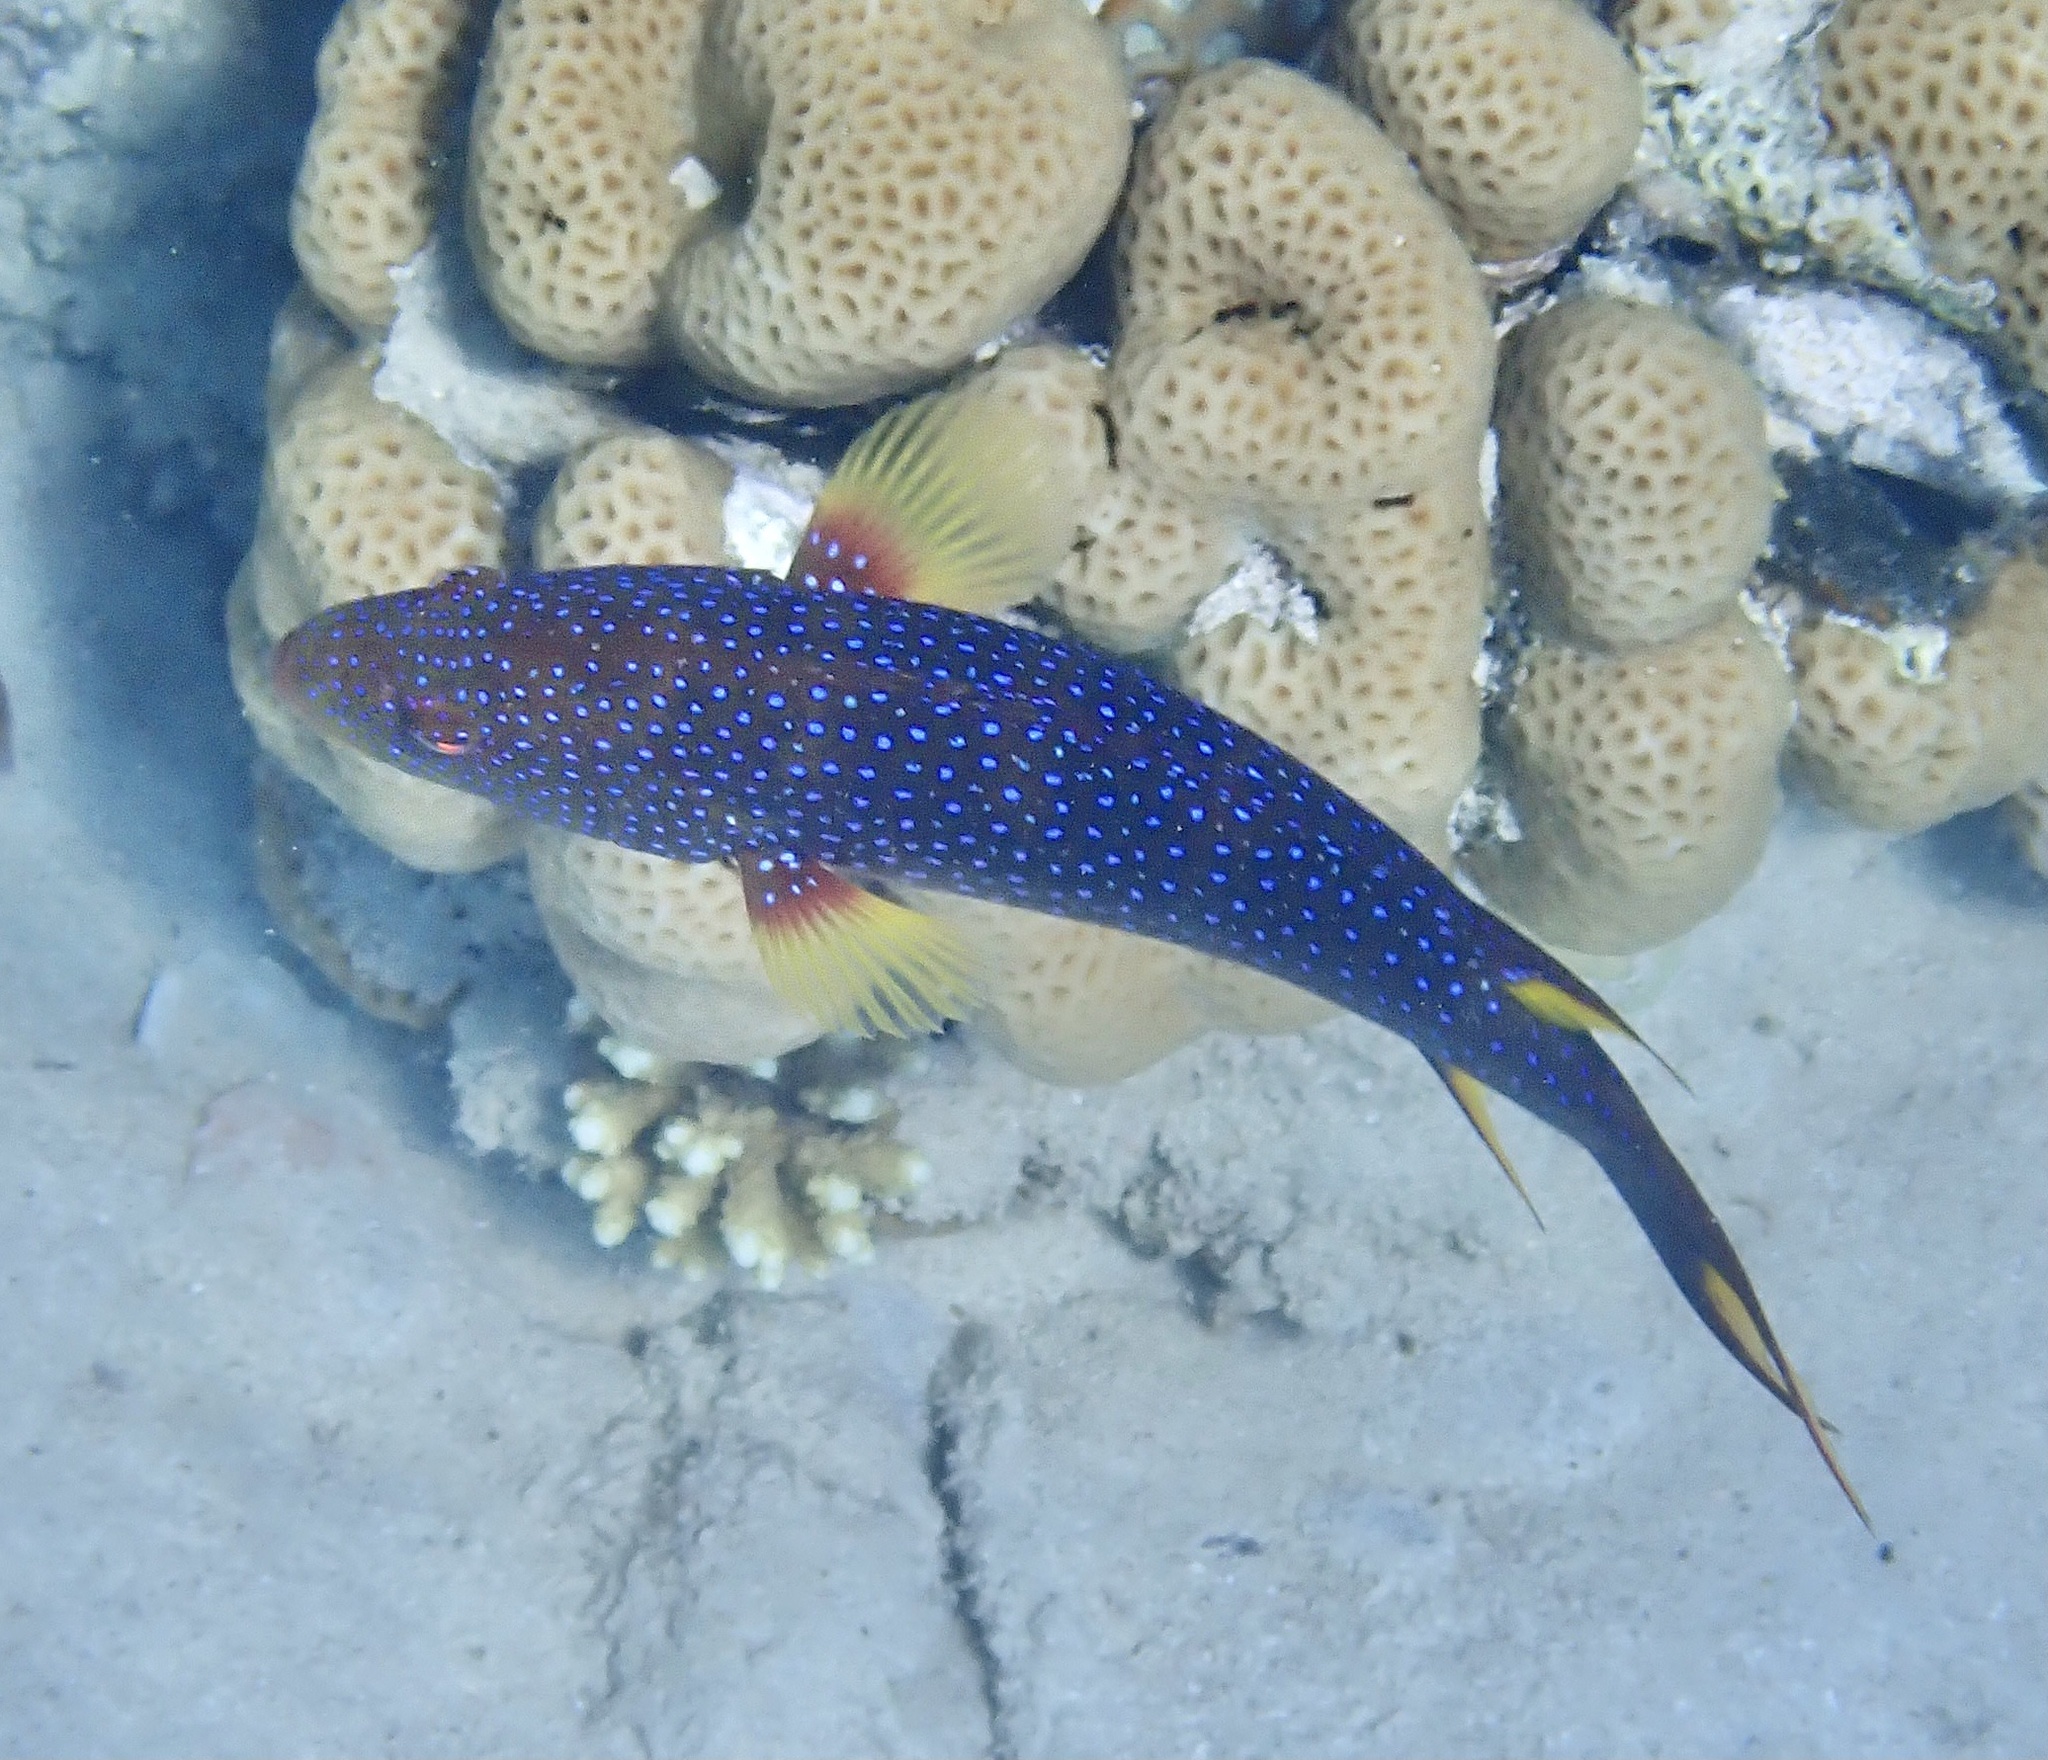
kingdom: Animalia
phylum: Chordata
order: Perciformes
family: Serranidae
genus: Variola
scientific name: Variola louti
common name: Yellow-edged lyretail
